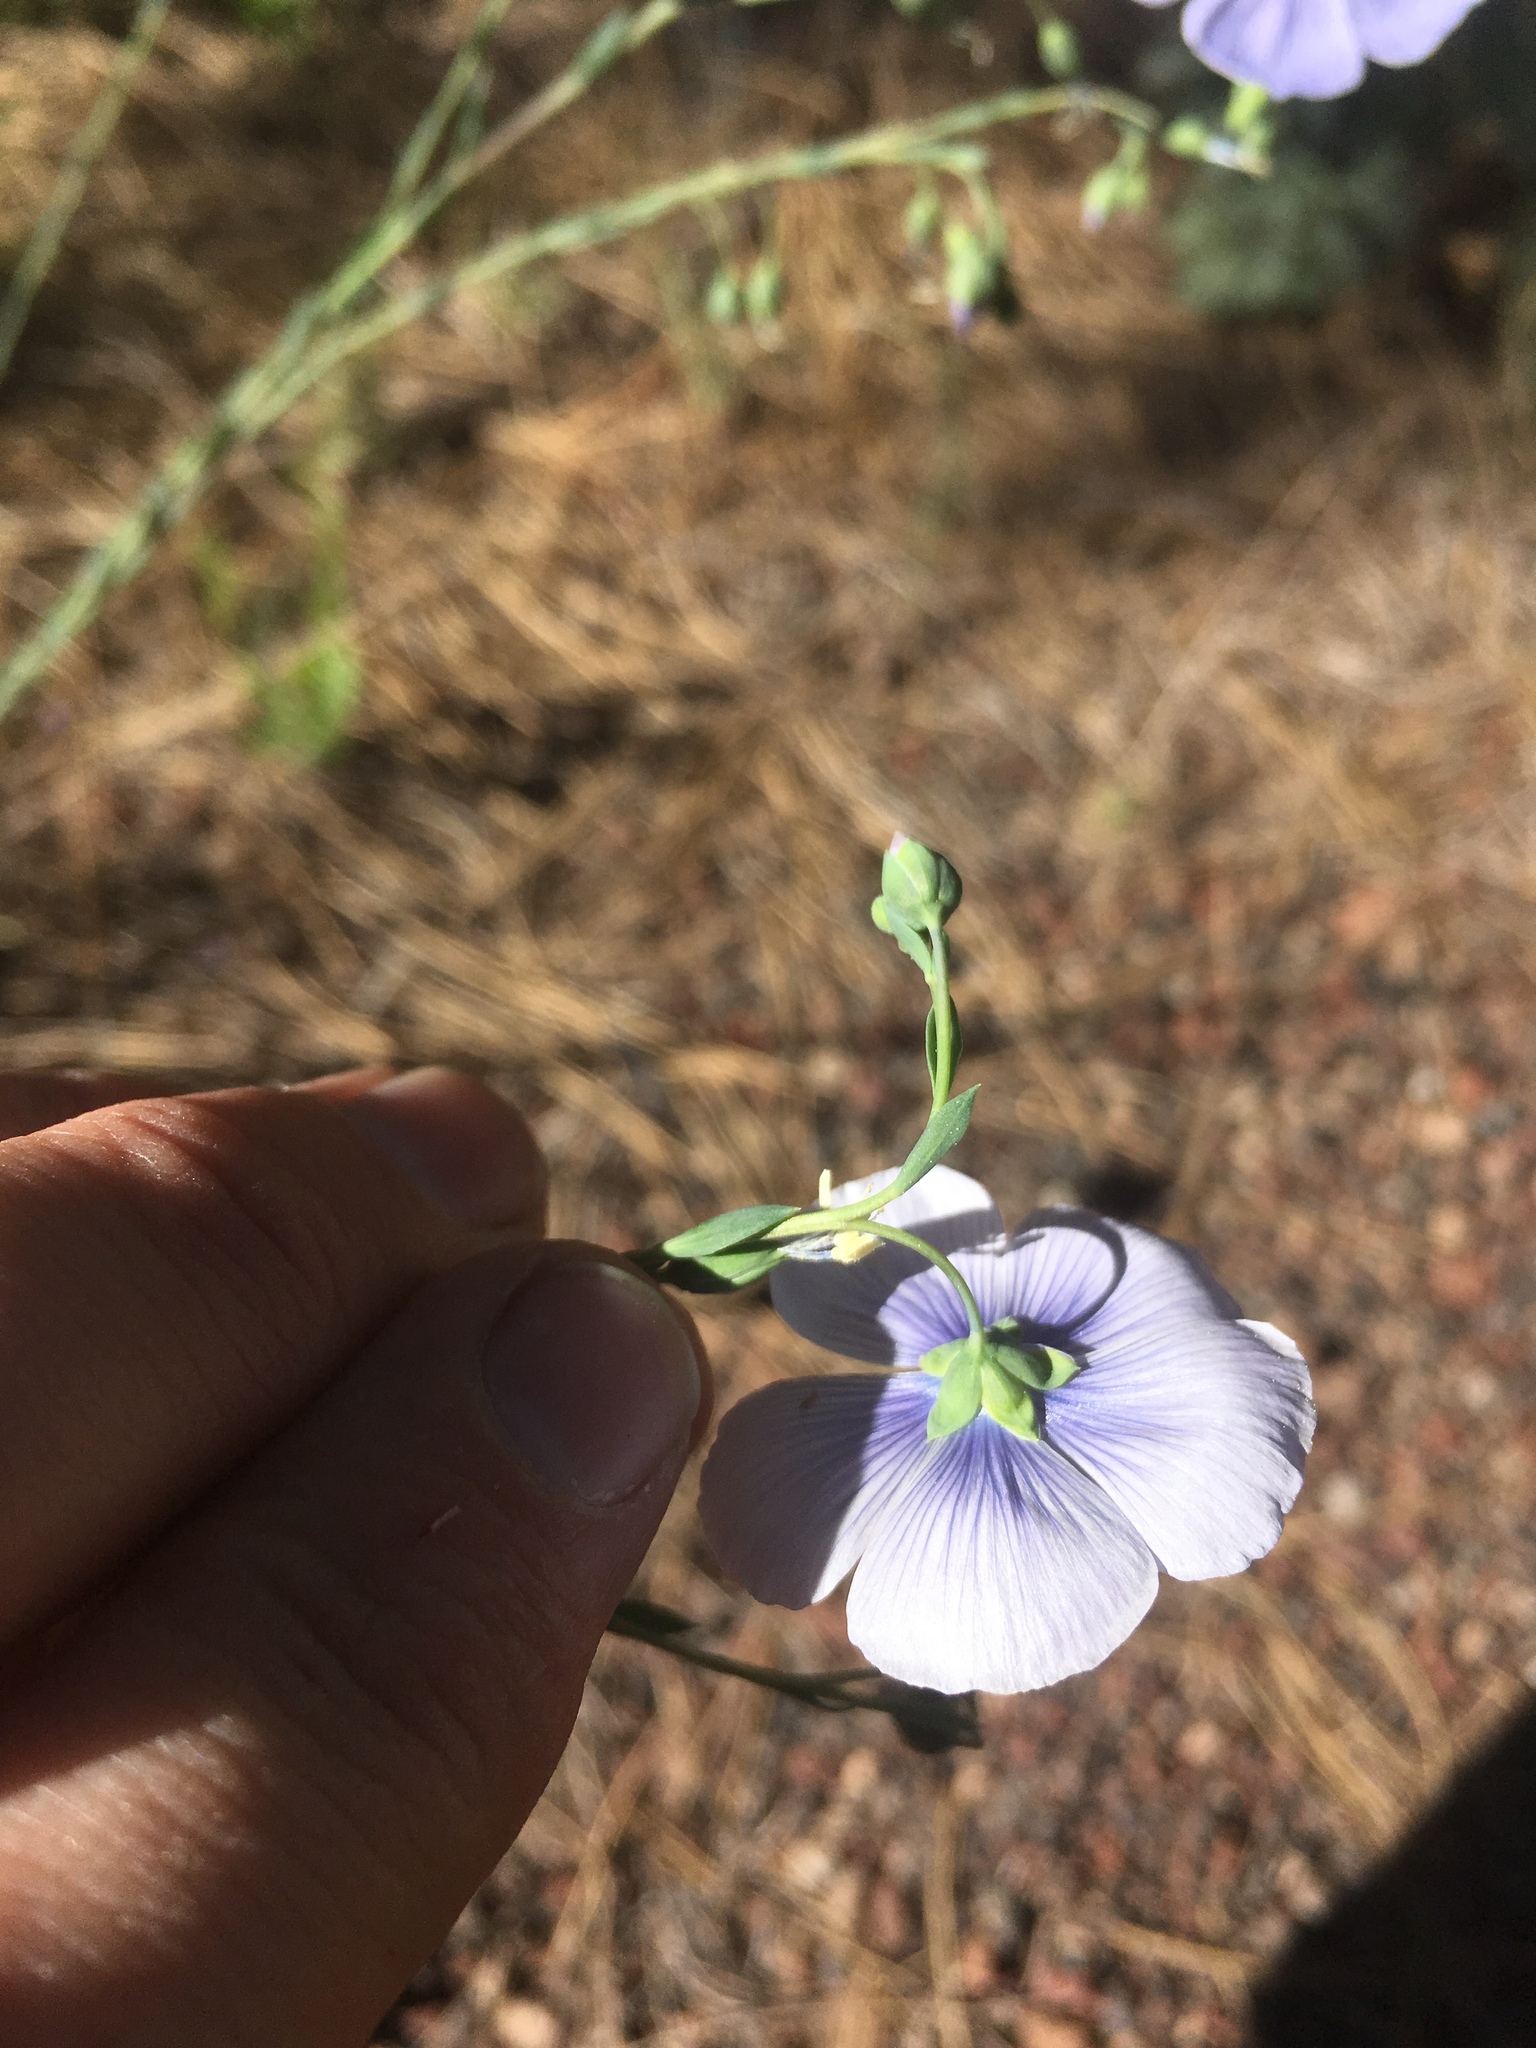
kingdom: Plantae
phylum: Tracheophyta
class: Magnoliopsida
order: Malpighiales
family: Linaceae
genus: Linum
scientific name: Linum lewisii
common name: Prairie flax
